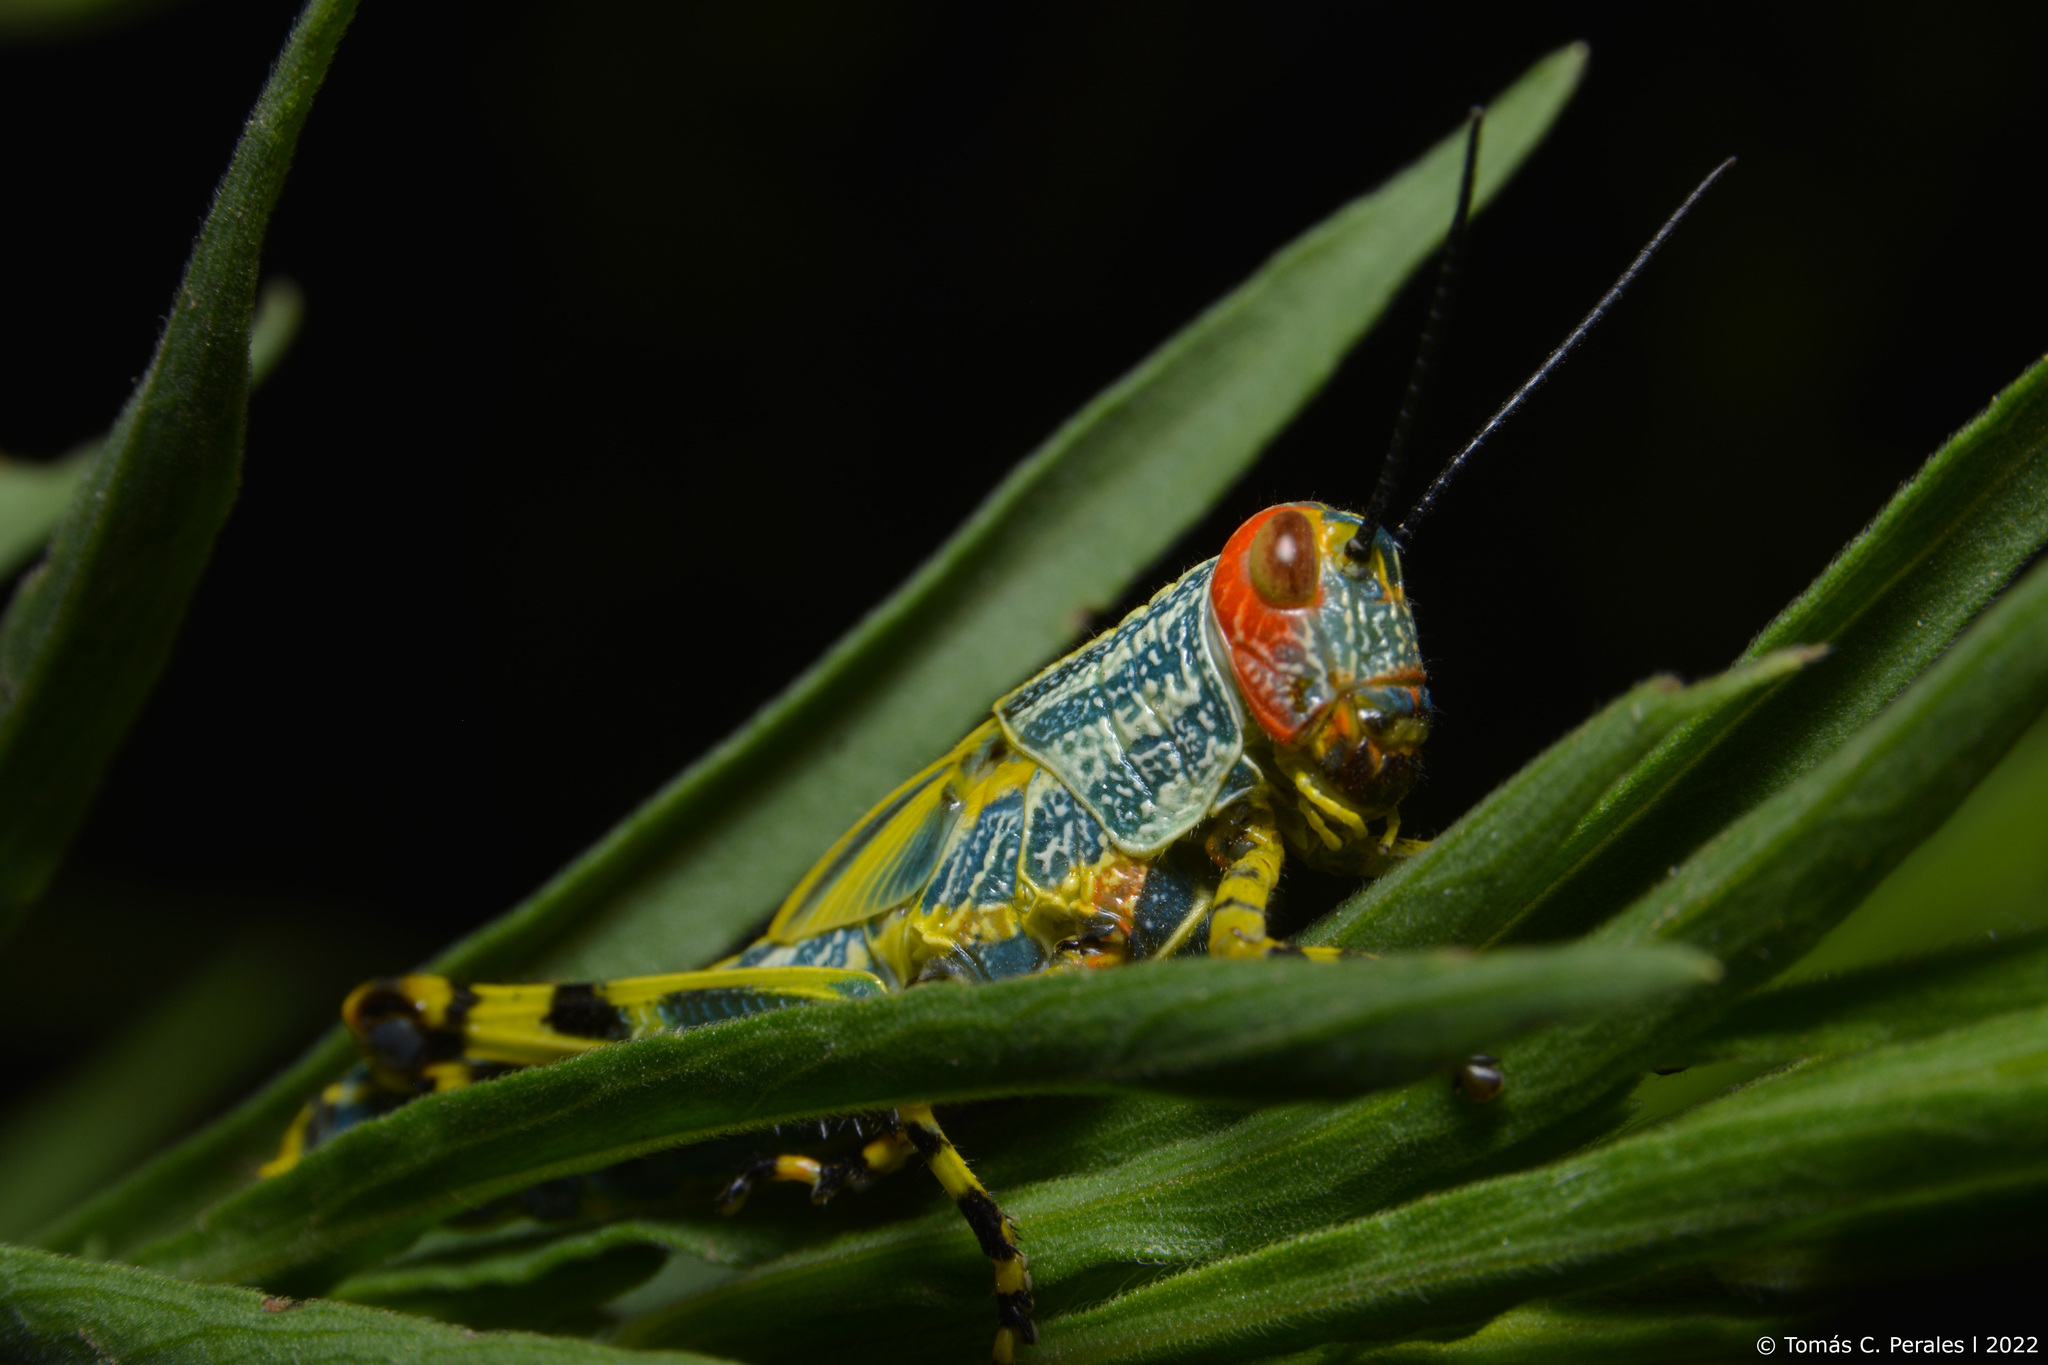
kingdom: Animalia
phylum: Arthropoda
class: Insecta
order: Orthoptera
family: Romaleidae
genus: Zoniopoda
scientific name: Zoniopoda tarsata
